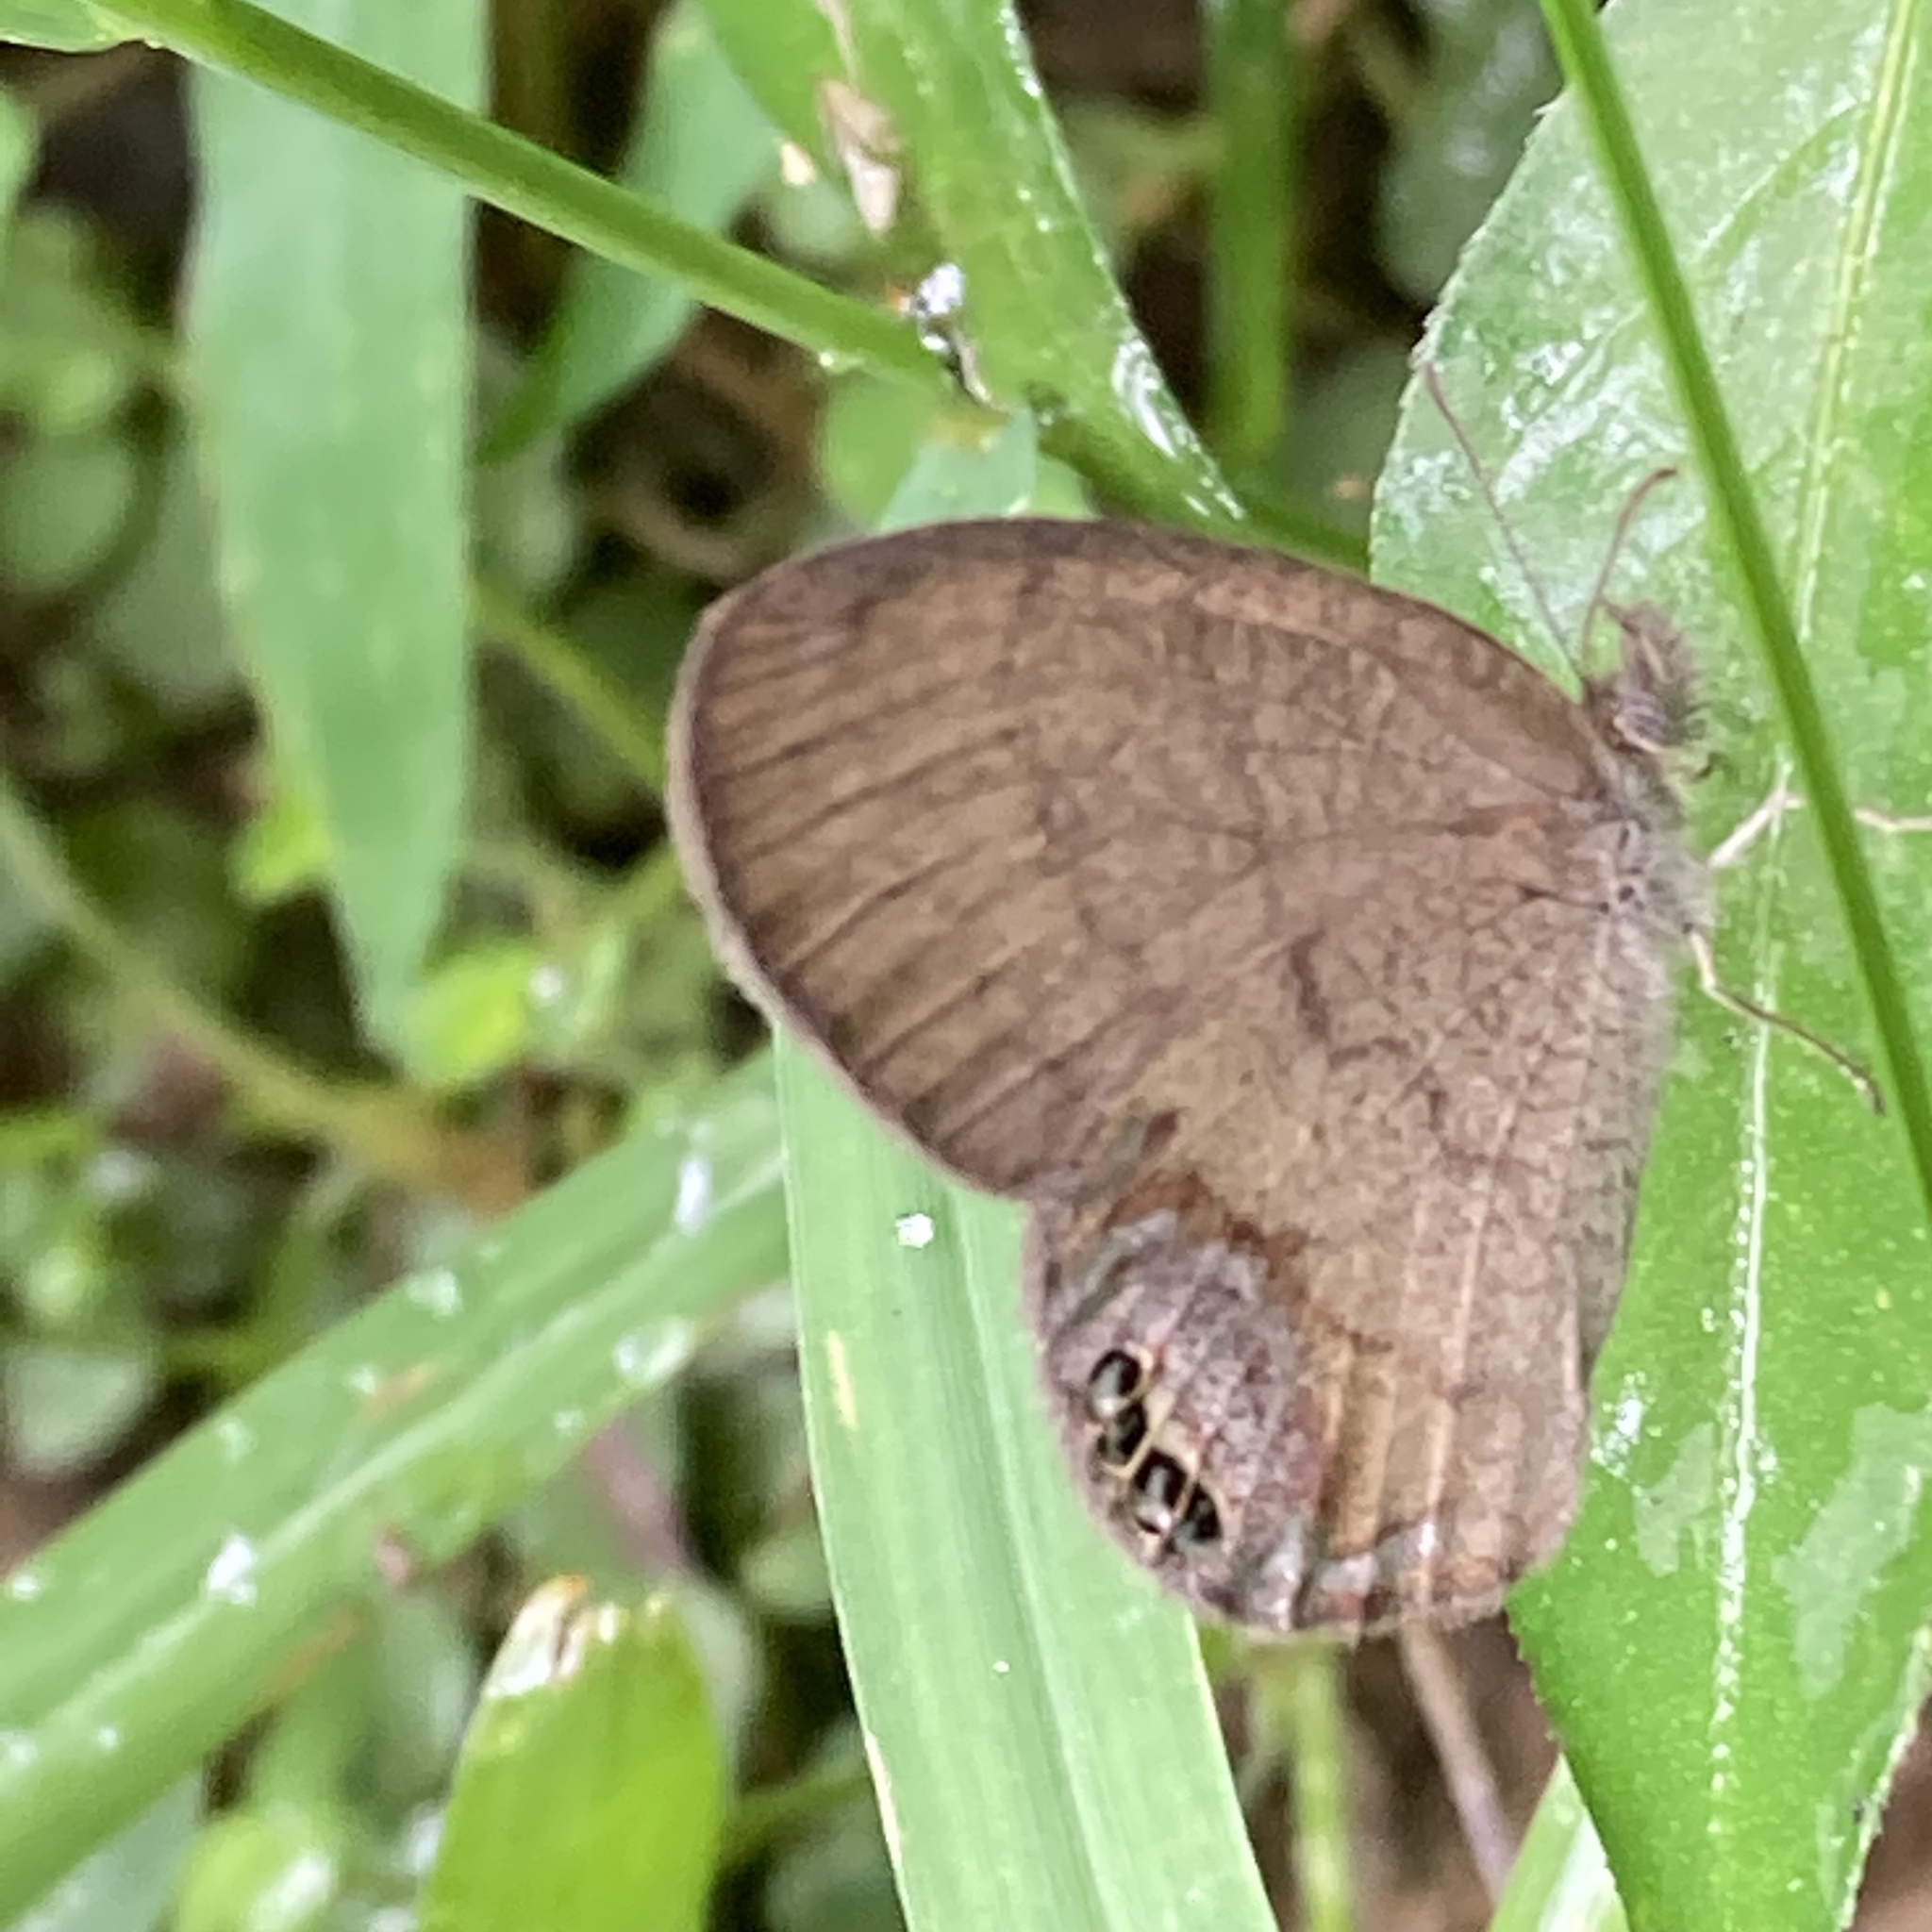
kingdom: Animalia
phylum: Arthropoda
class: Insecta
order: Lepidoptera
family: Nymphalidae
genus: Euptychia
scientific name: Euptychia cornelius
